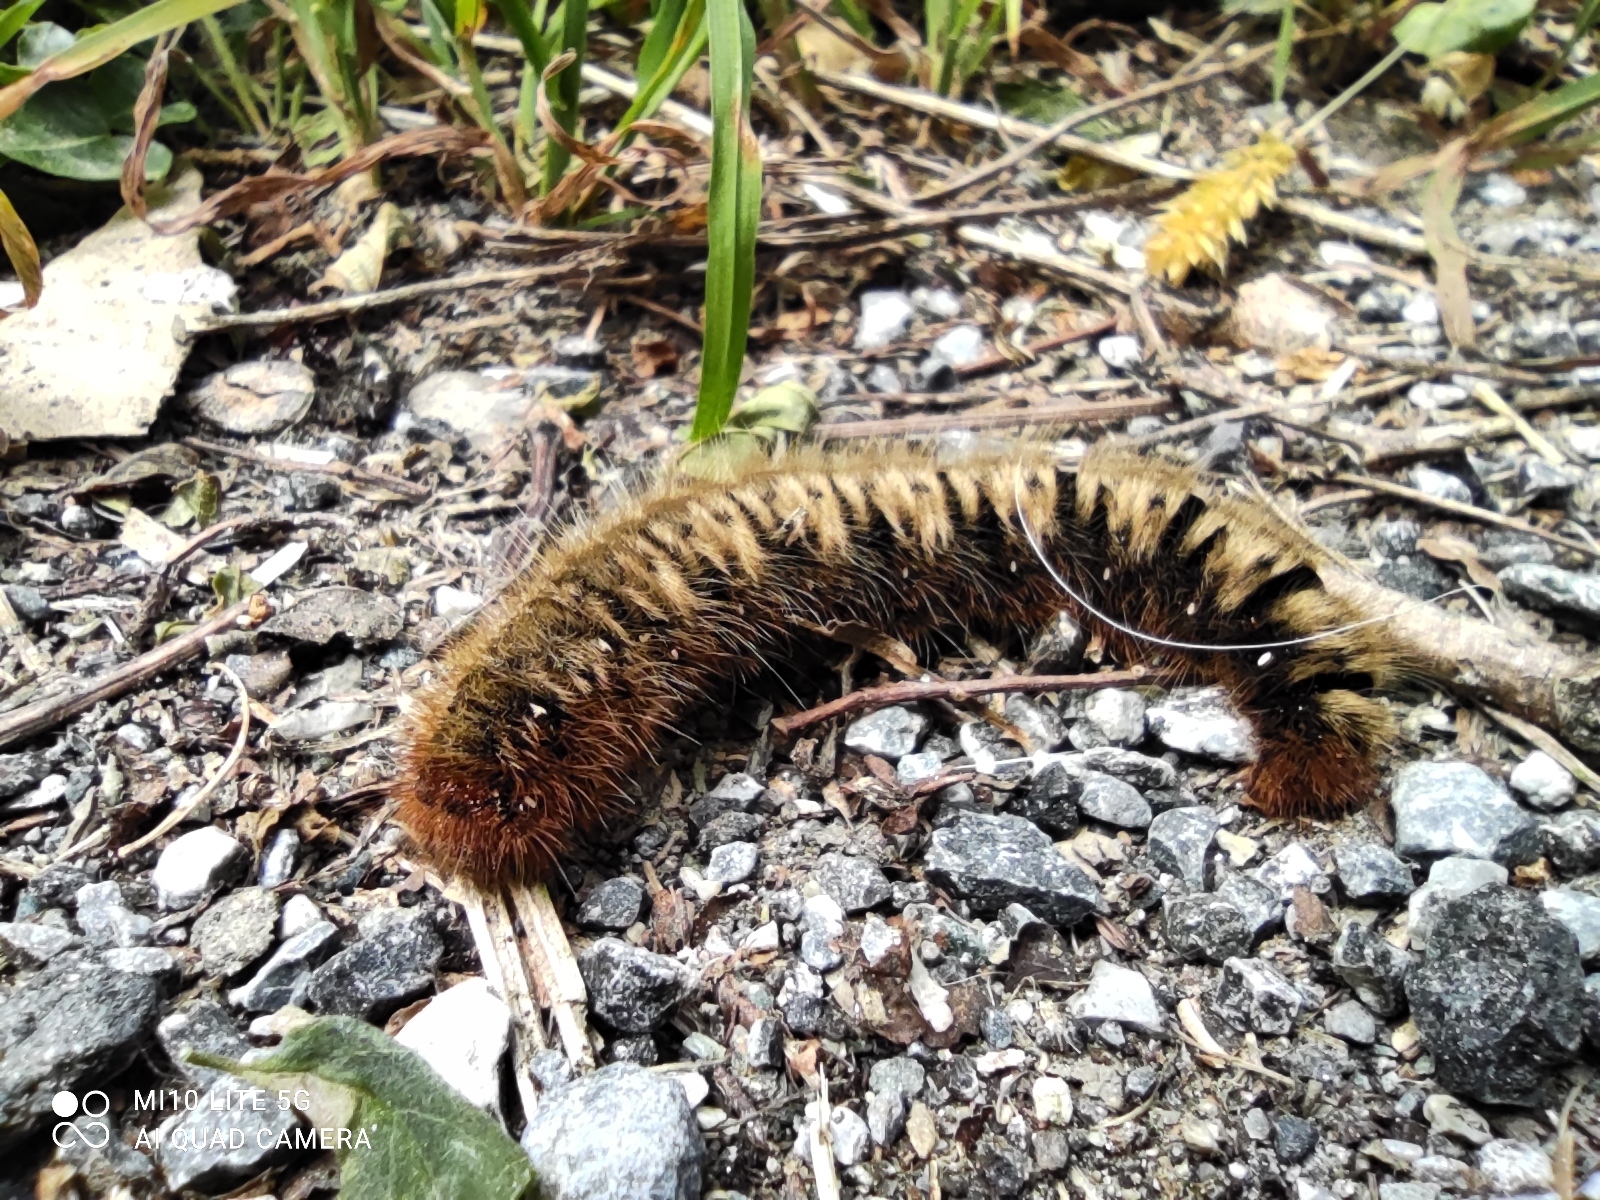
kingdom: Animalia
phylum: Arthropoda
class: Insecta
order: Lepidoptera
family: Lasiocampidae
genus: Lasiocampa
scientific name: Lasiocampa quercus
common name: Oak eggar
